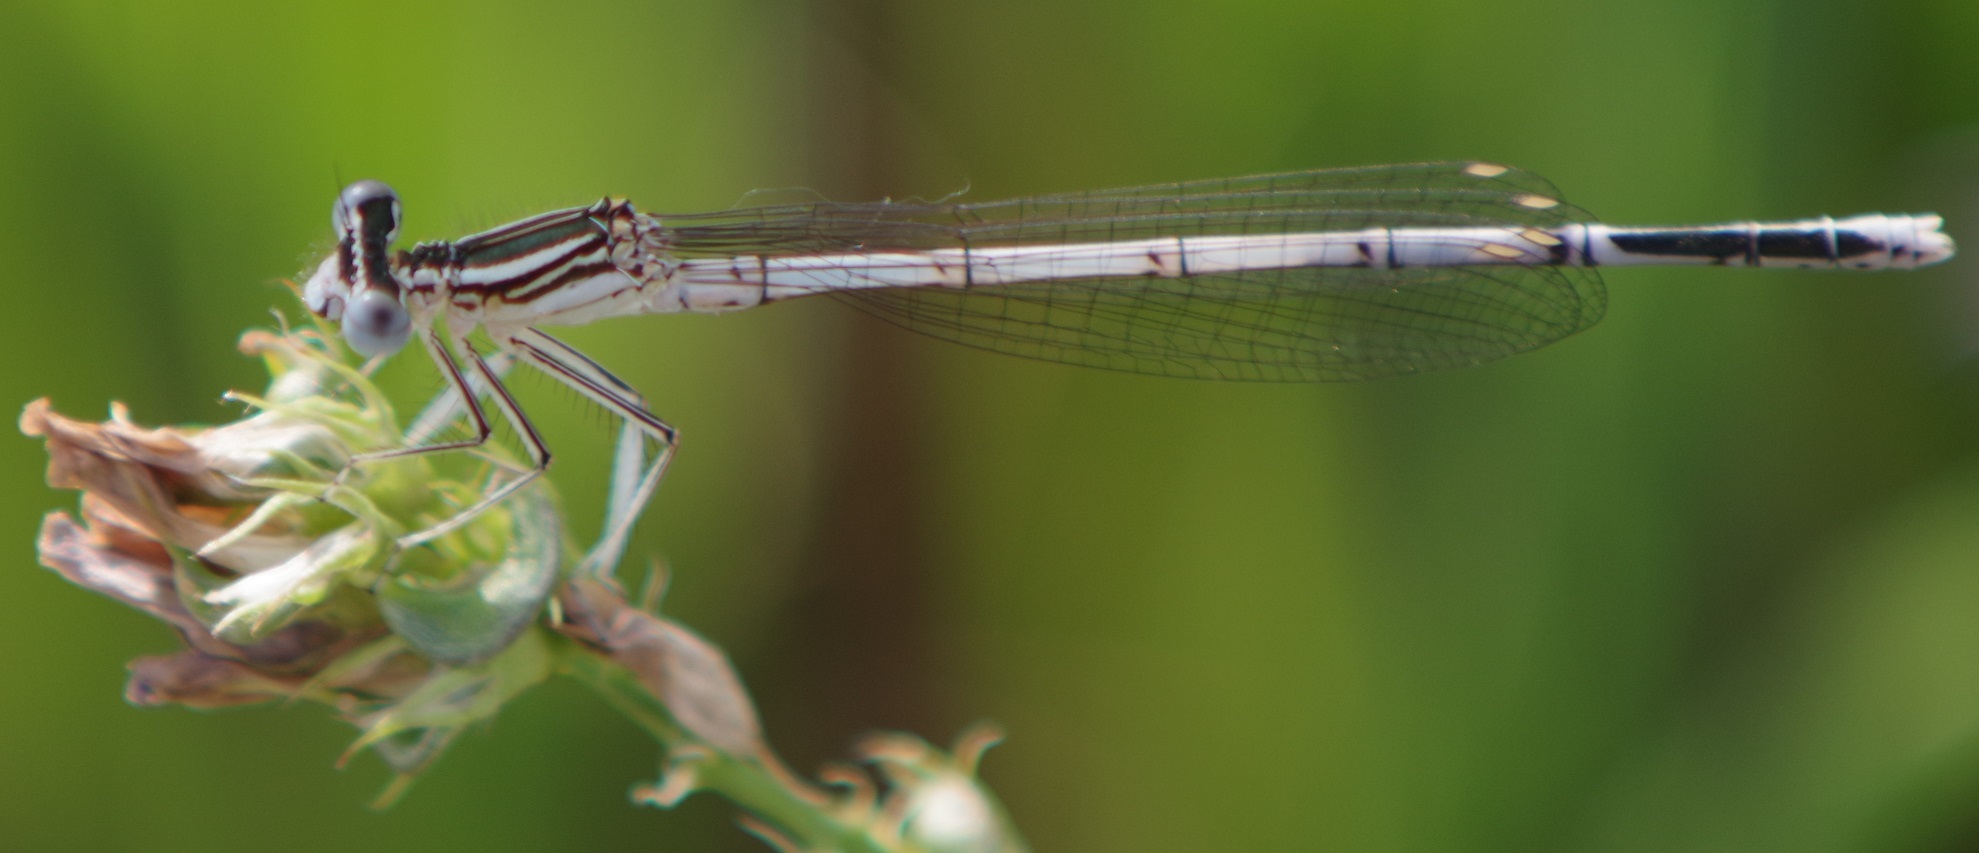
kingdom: Animalia
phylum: Arthropoda
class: Insecta
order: Odonata
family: Platycnemididae
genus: Platycnemis
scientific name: Platycnemis pennipes
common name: White-legged damselfly
